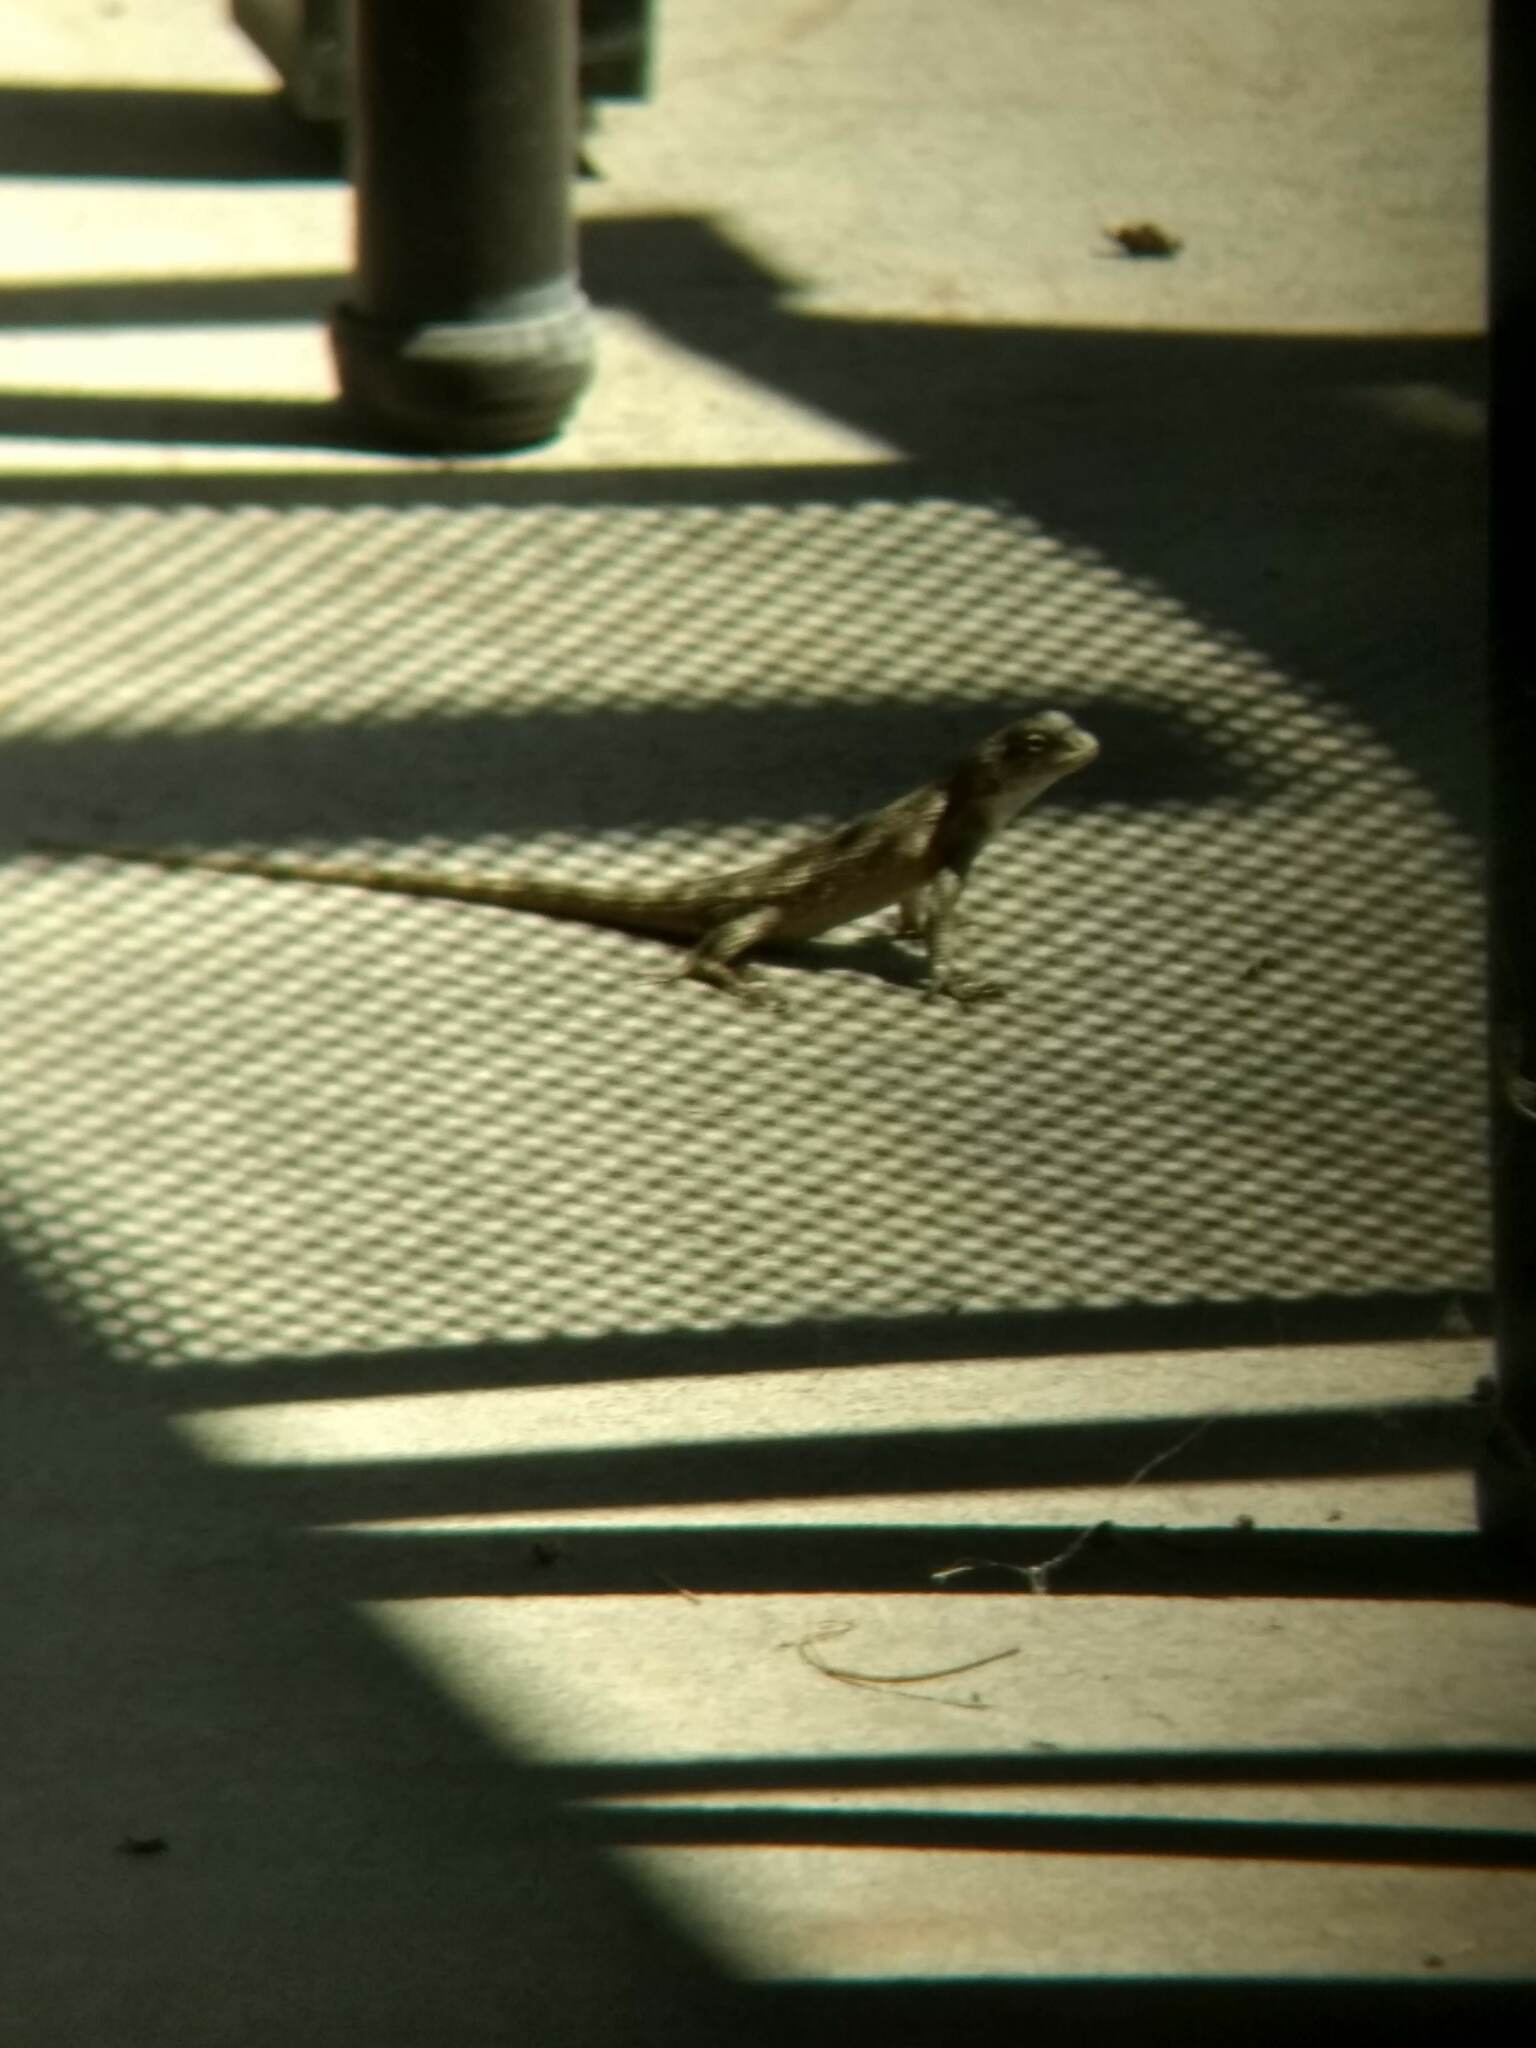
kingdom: Animalia
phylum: Chordata
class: Squamata
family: Phrynosomatidae
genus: Sceloporus
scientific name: Sceloporus occidentalis
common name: Western fence lizard
